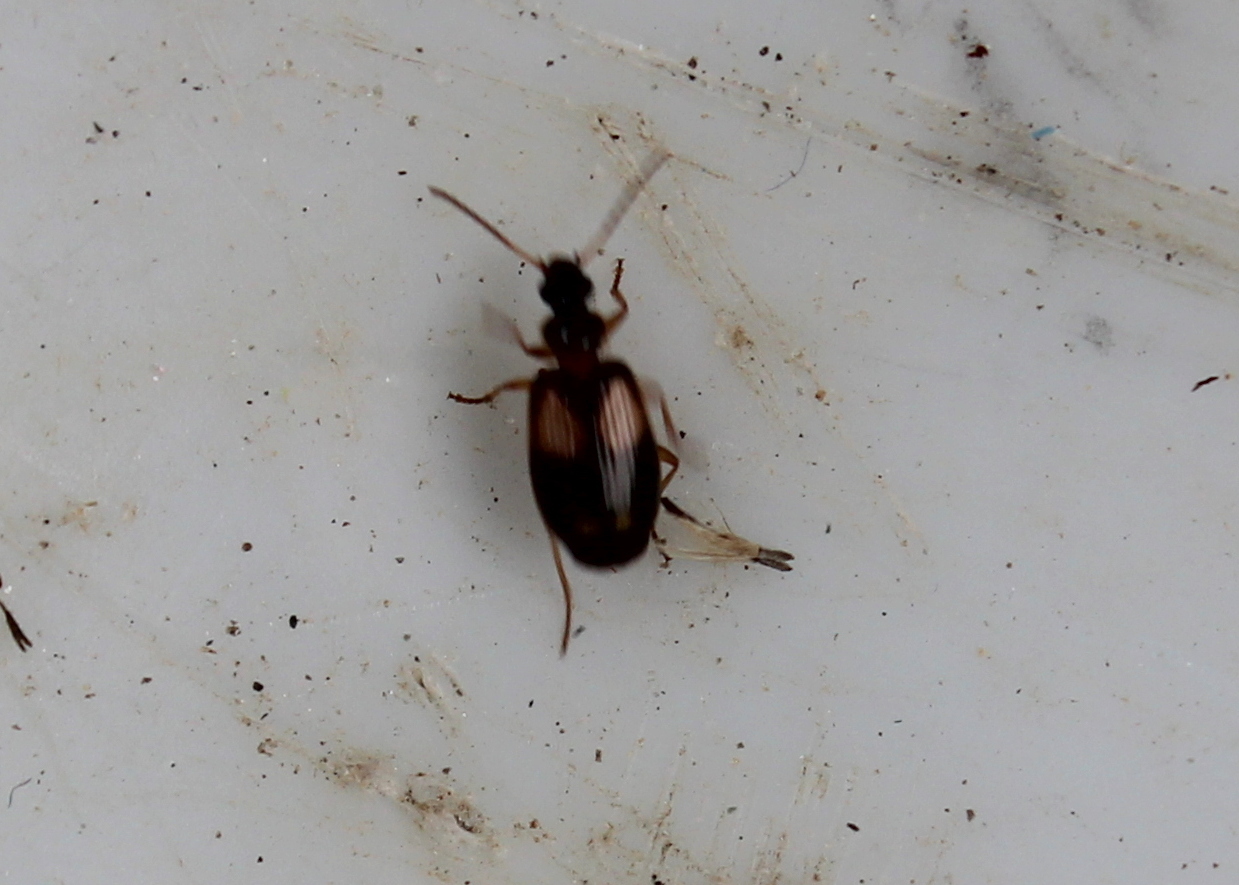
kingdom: Animalia
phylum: Arthropoda
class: Insecta
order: Coleoptera
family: Carabidae
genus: Lebia
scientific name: Lebia ornata
